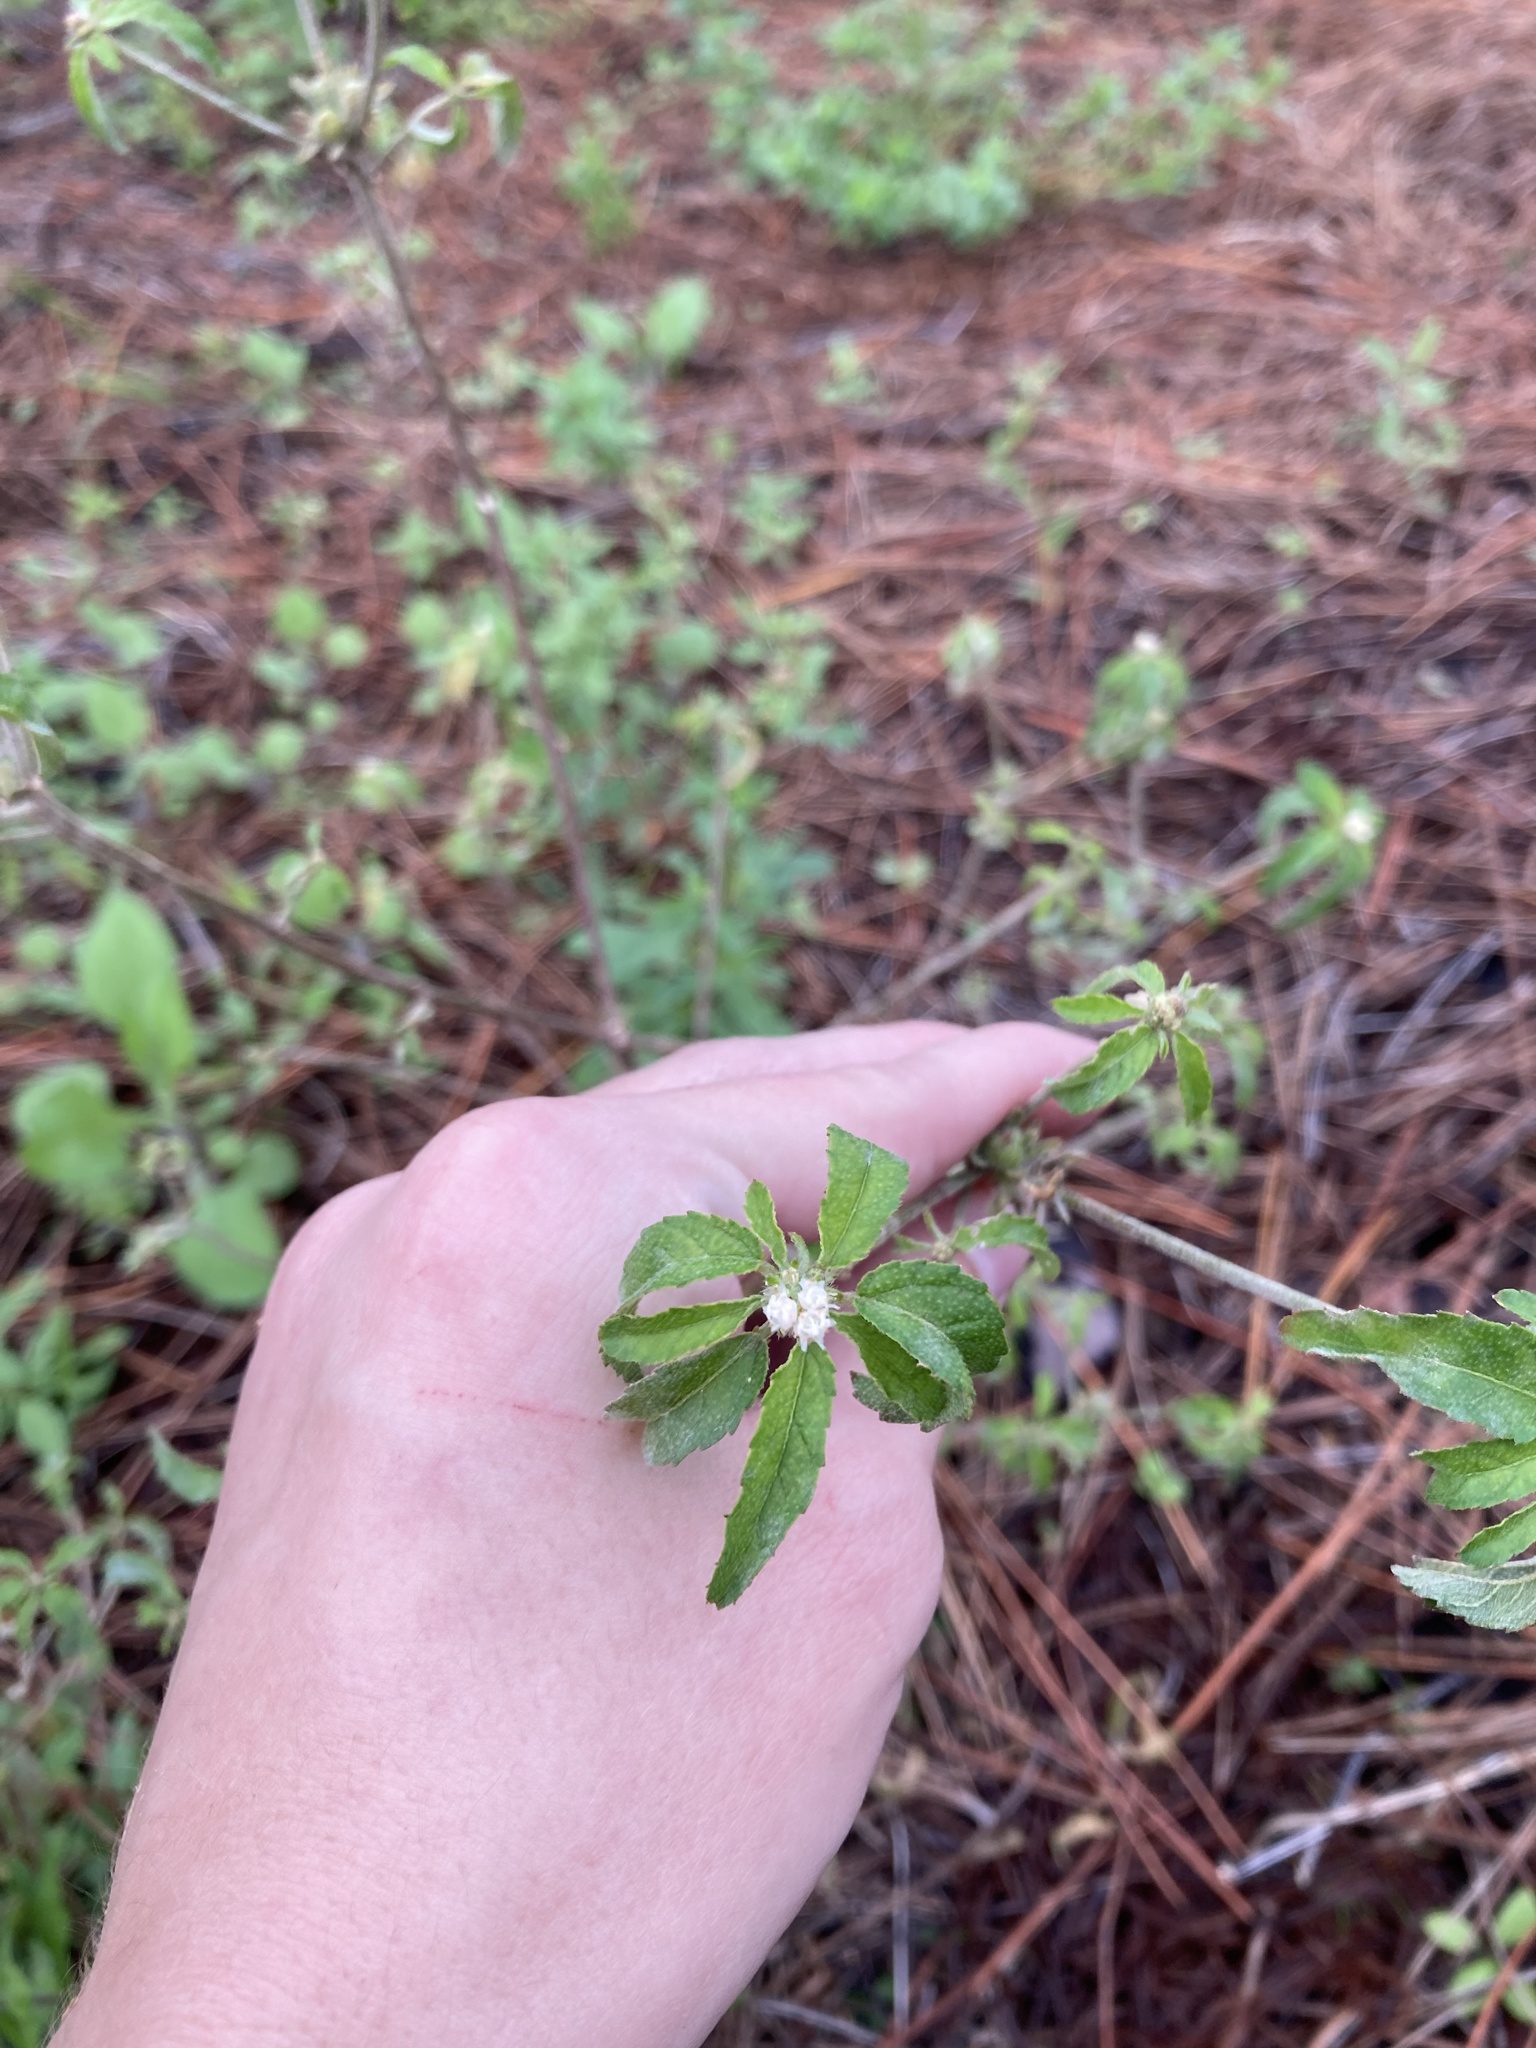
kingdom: Plantae
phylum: Tracheophyta
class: Magnoliopsida
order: Malpighiales
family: Euphorbiaceae
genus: Croton
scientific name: Croton glandulosus
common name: Tropic croton
